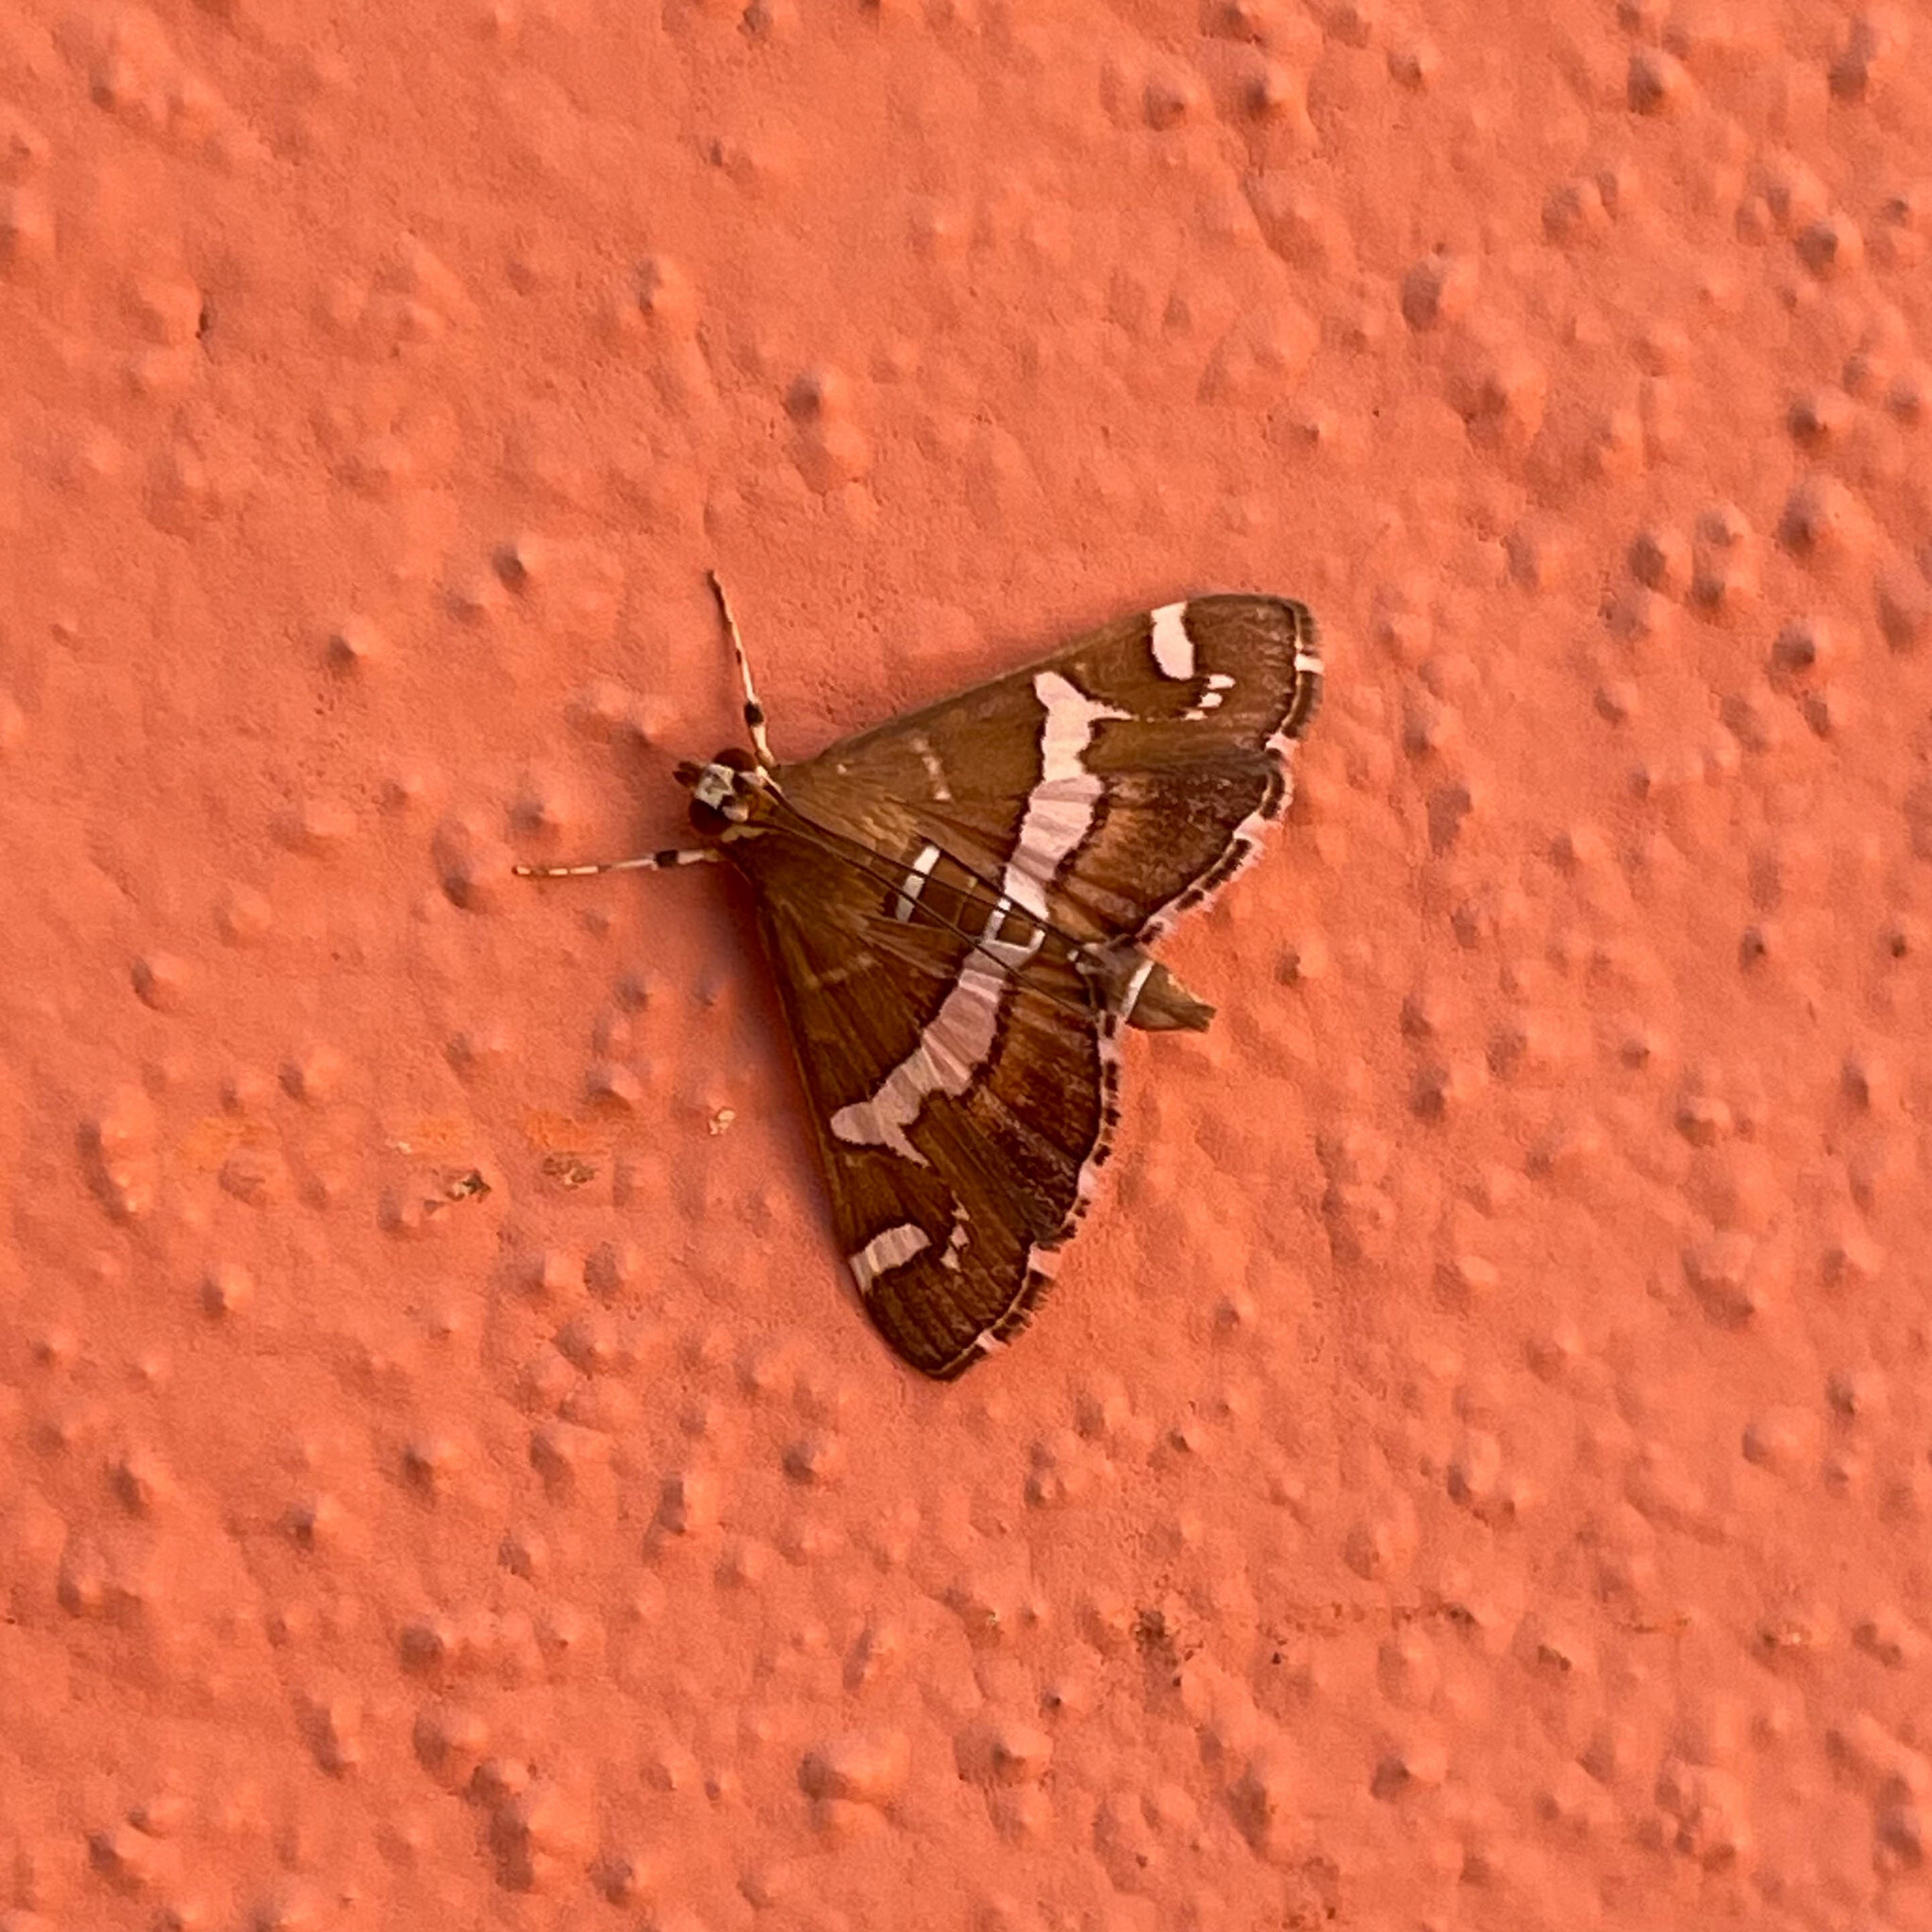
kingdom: Animalia
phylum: Arthropoda
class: Insecta
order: Lepidoptera
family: Crambidae
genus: Spoladea
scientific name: Spoladea recurvalis
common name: Beet webworm moth
